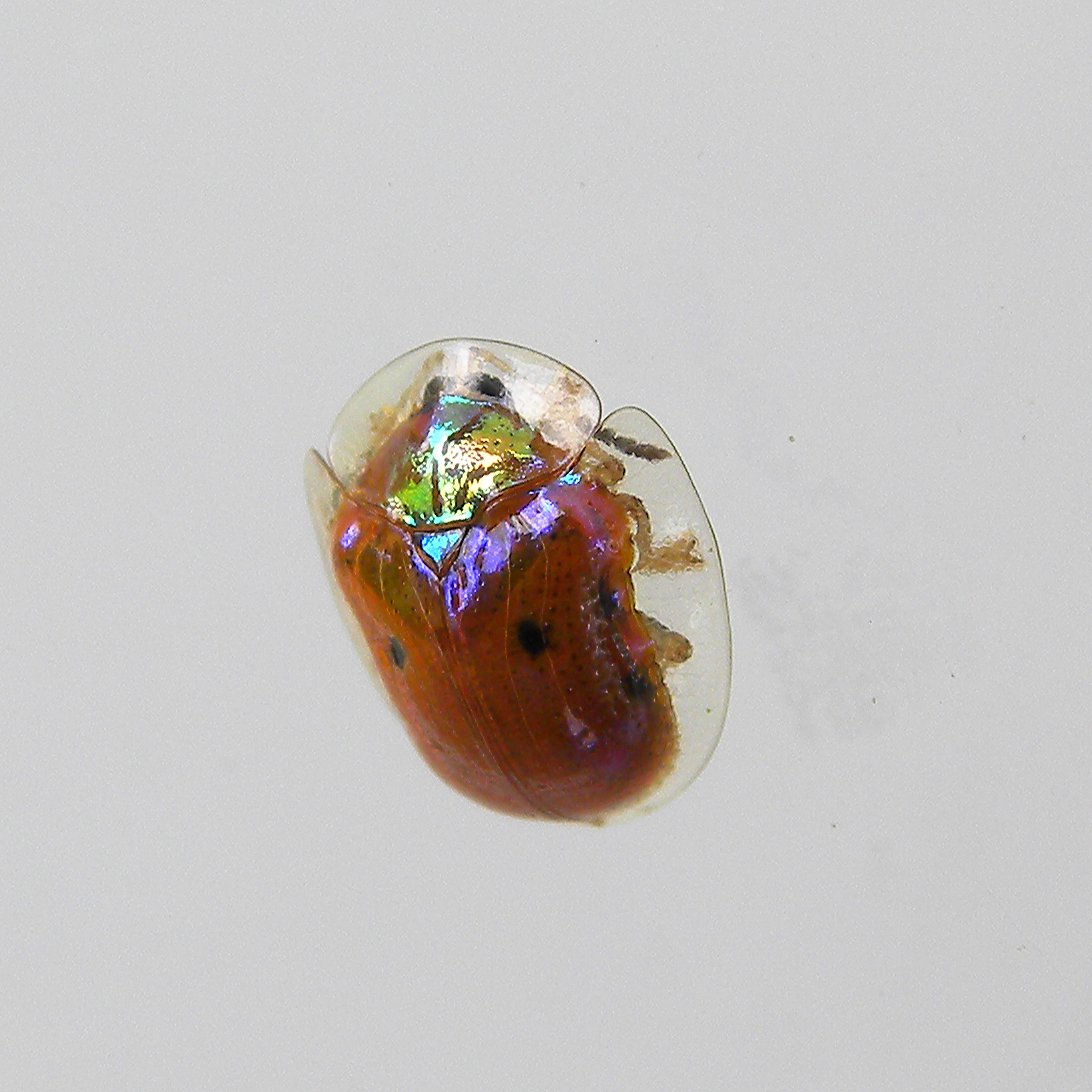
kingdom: Animalia
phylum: Arthropoda
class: Insecta
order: Coleoptera
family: Chrysomelidae
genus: Charidotella
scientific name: Charidotella sexpunctata
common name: Golden tortoise beetle
